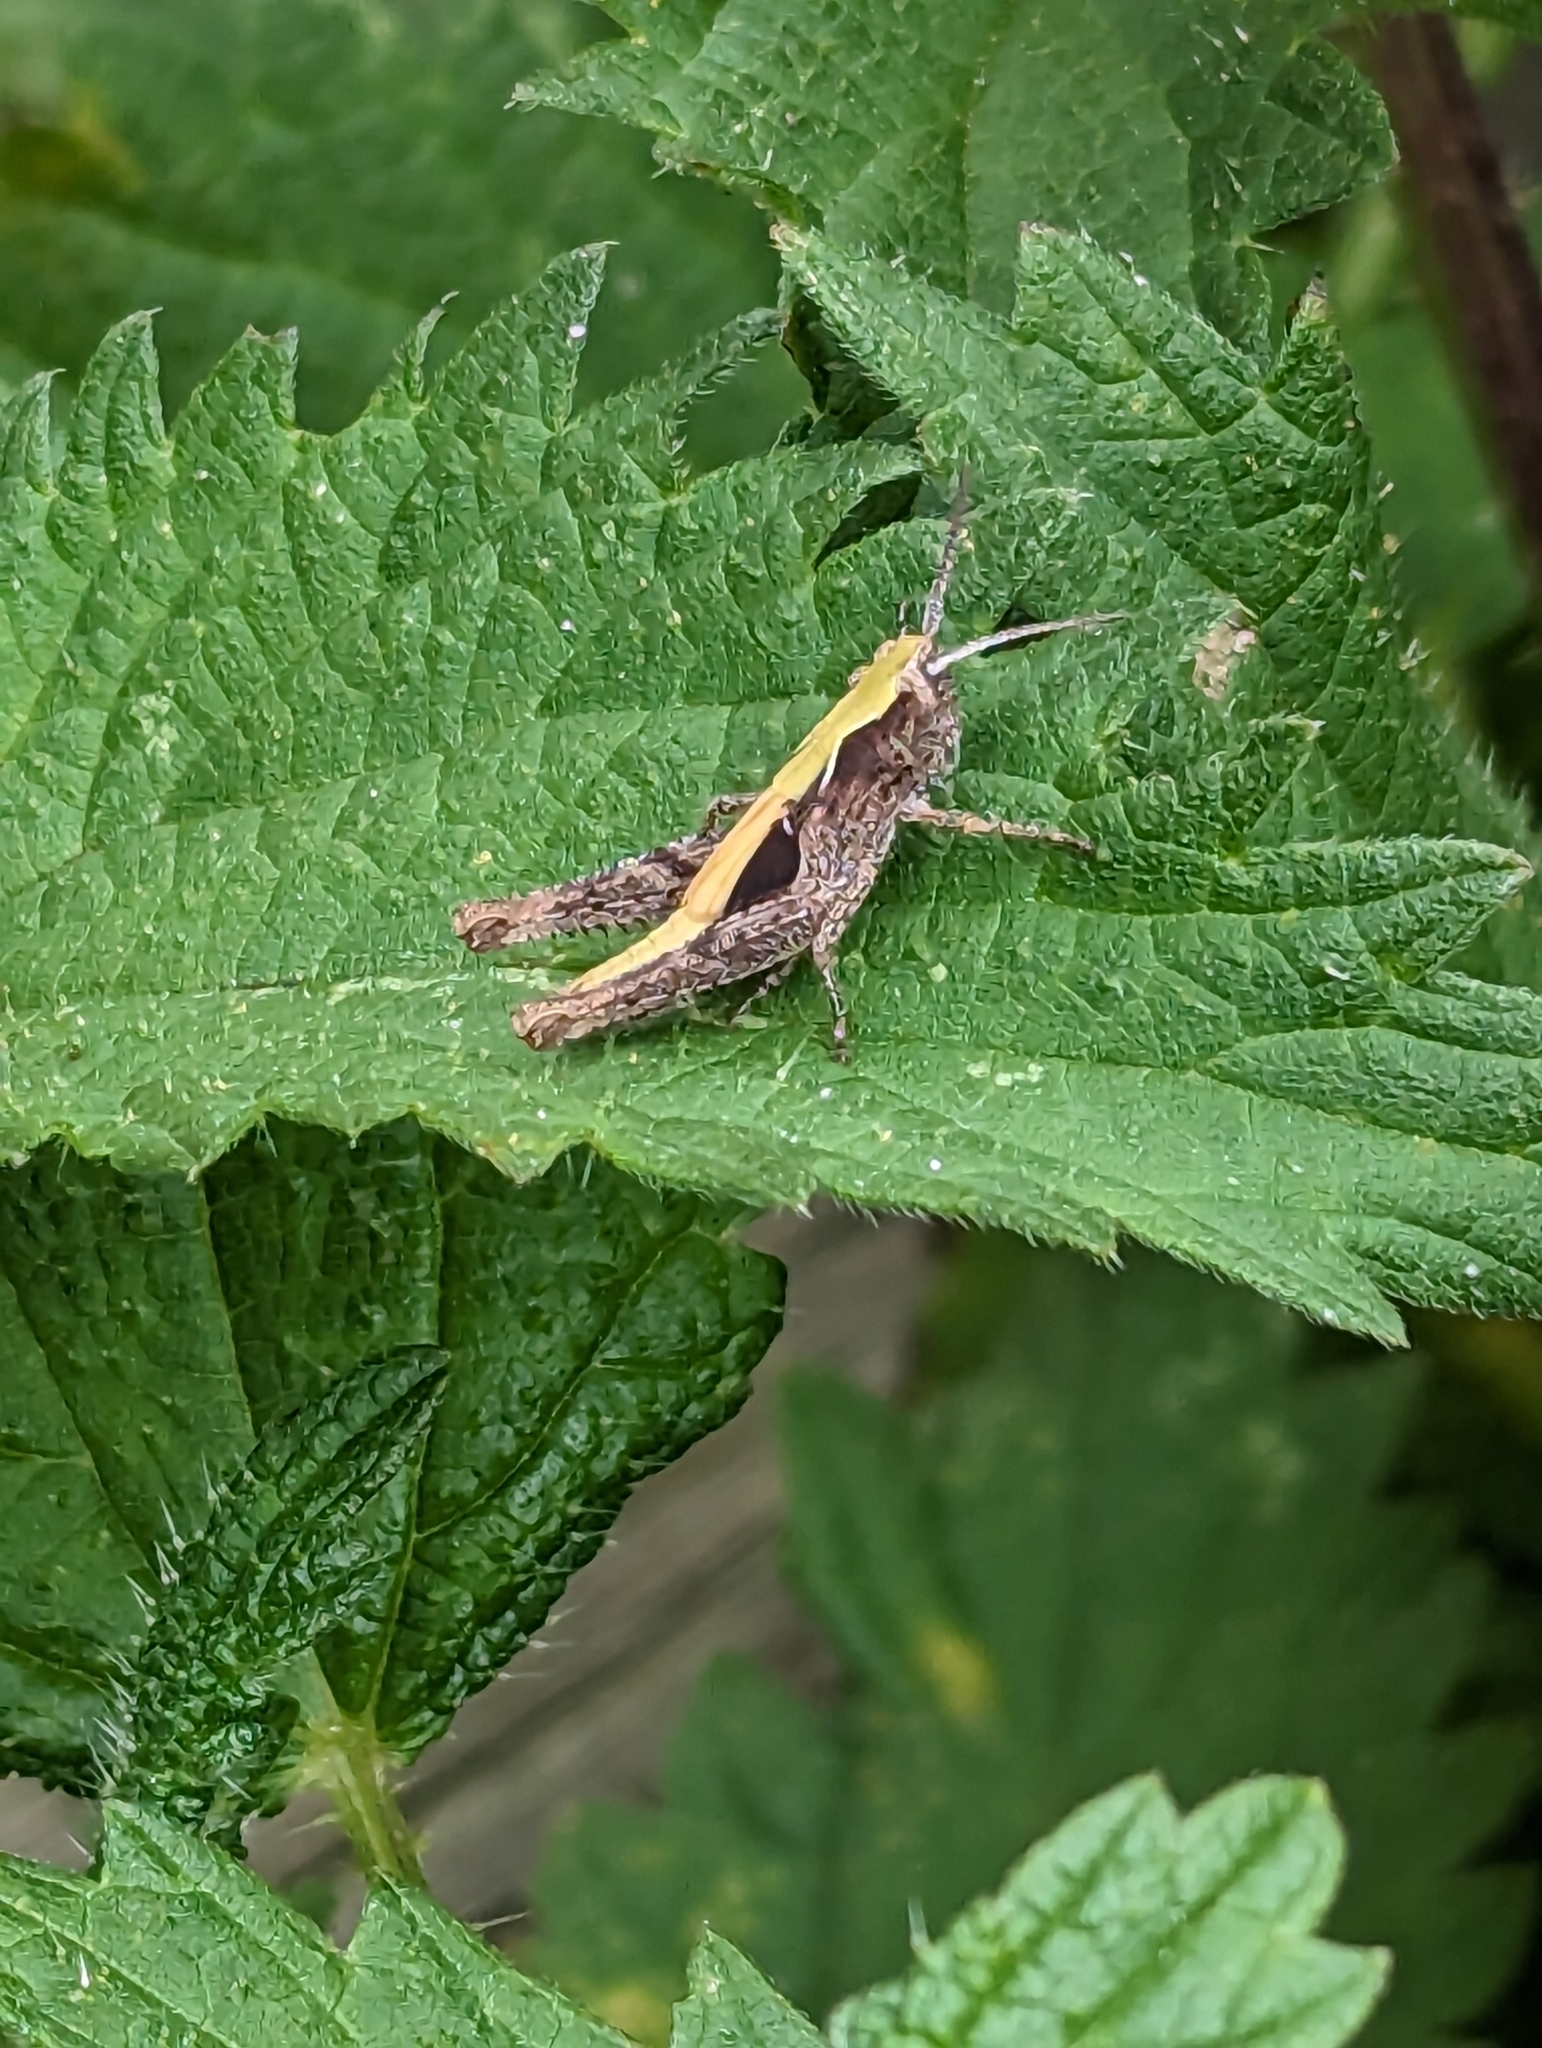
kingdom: Animalia
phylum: Arthropoda
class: Insecta
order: Orthoptera
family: Acrididae
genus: Chorthippus
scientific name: Chorthippus brunneus
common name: Field grasshopper
